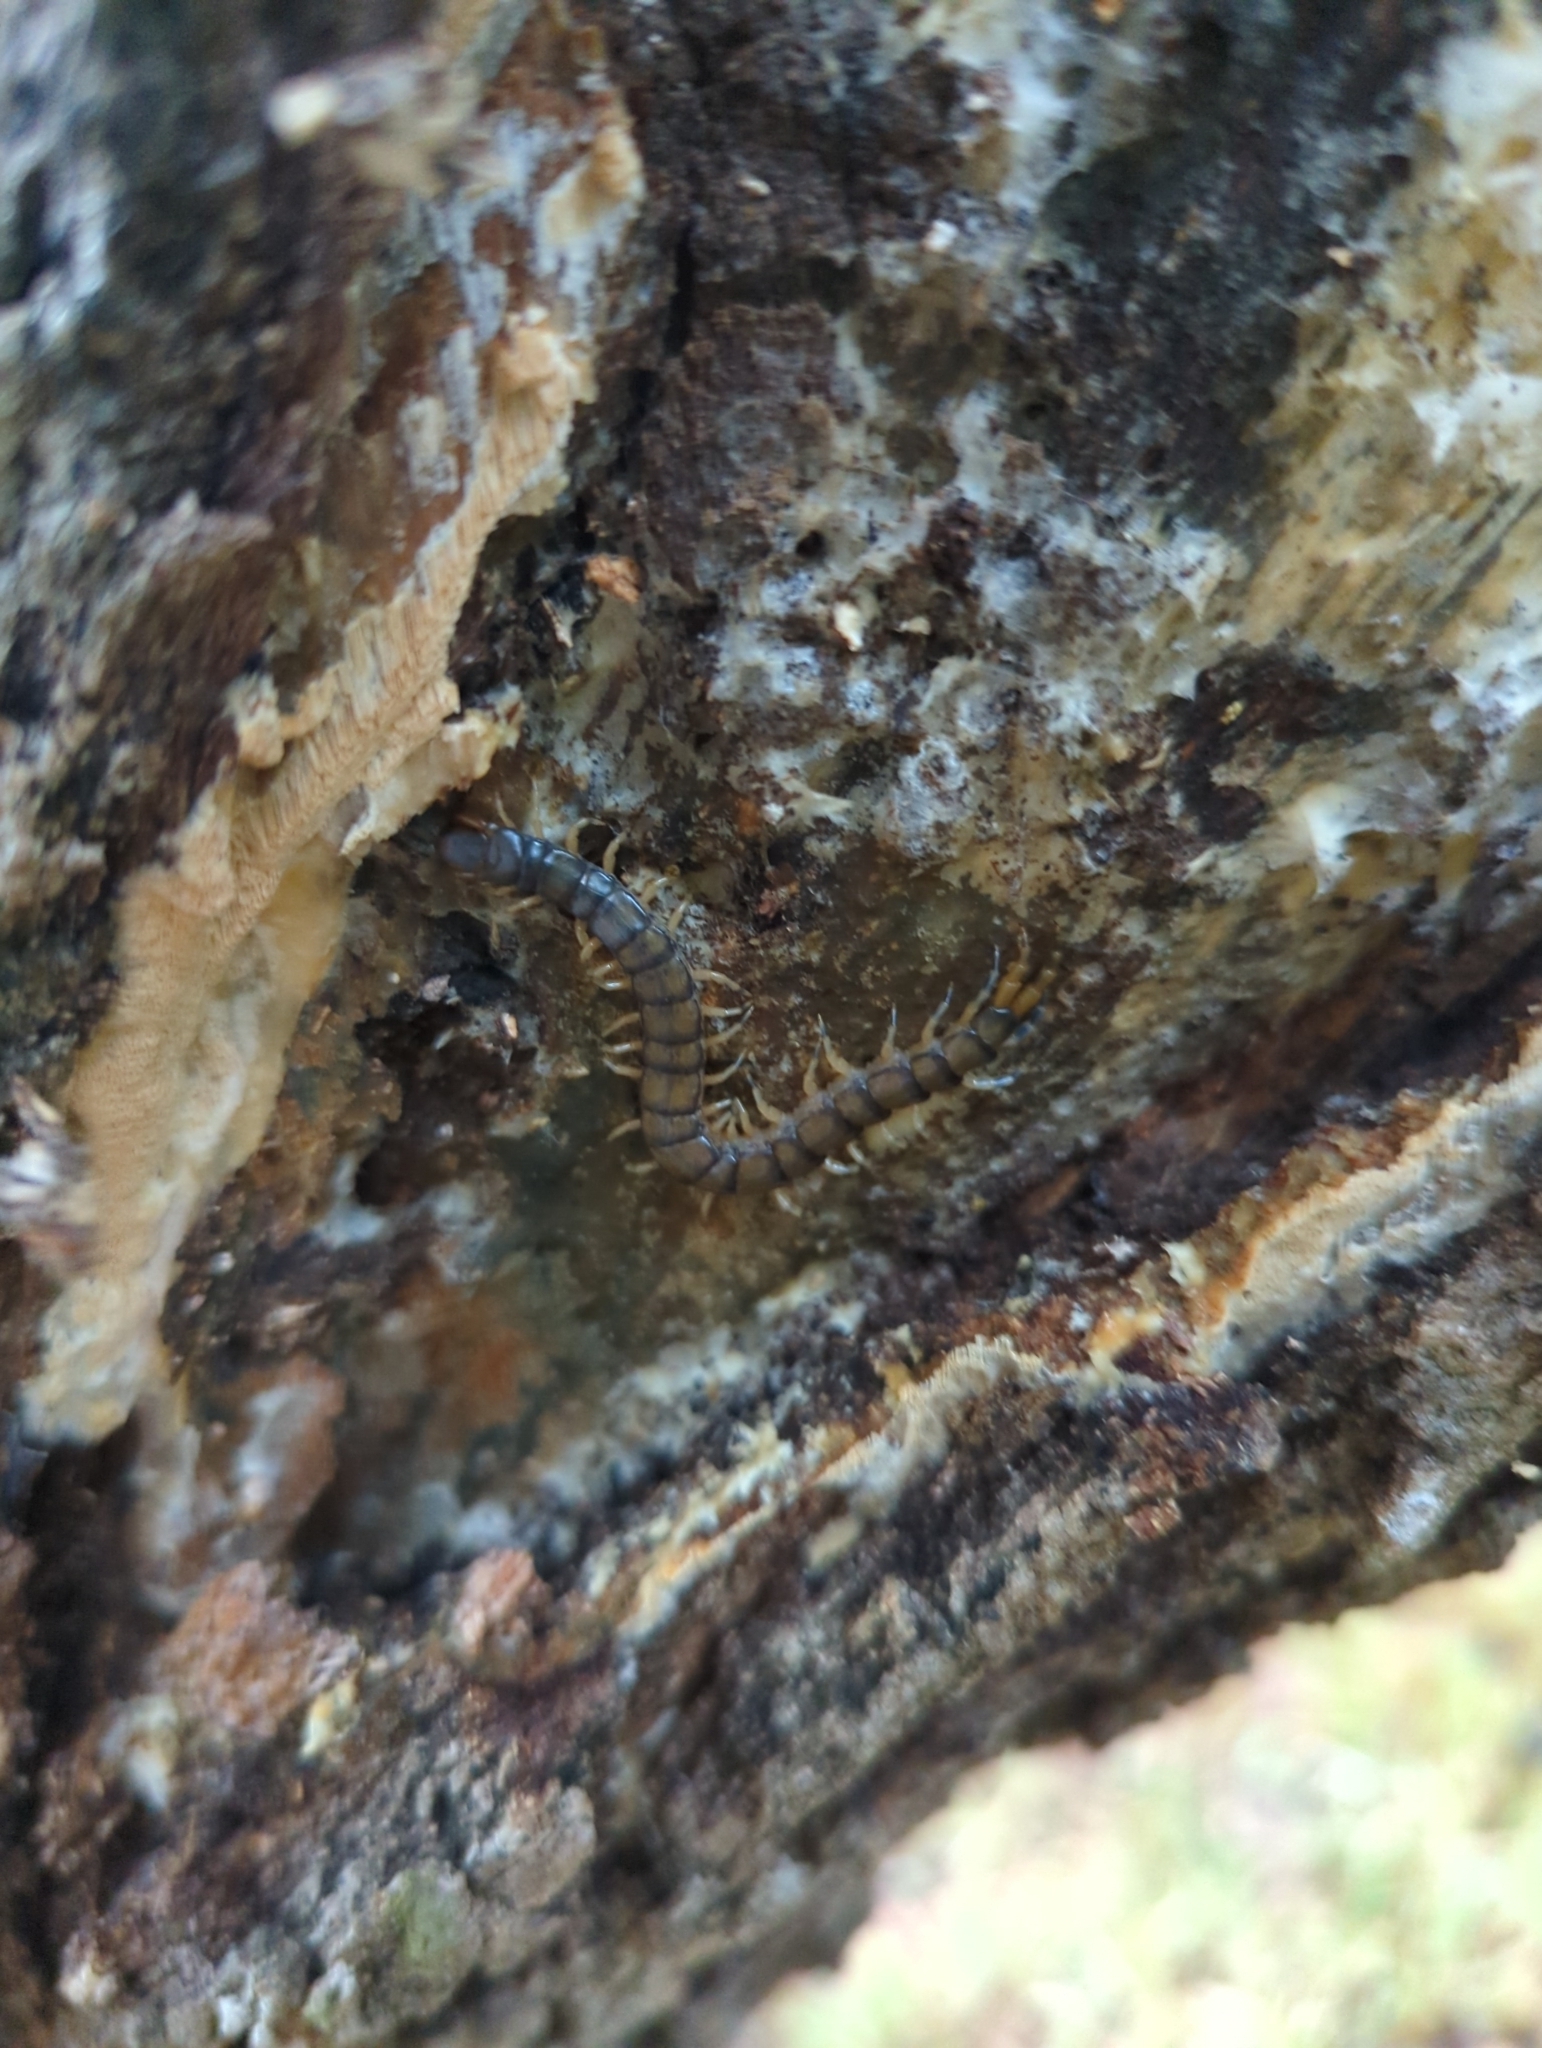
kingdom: Animalia
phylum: Arthropoda
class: Chilopoda
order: Scolopendromorpha
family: Scolopendridae
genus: Hemiscolopendra
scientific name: Hemiscolopendra marginata
